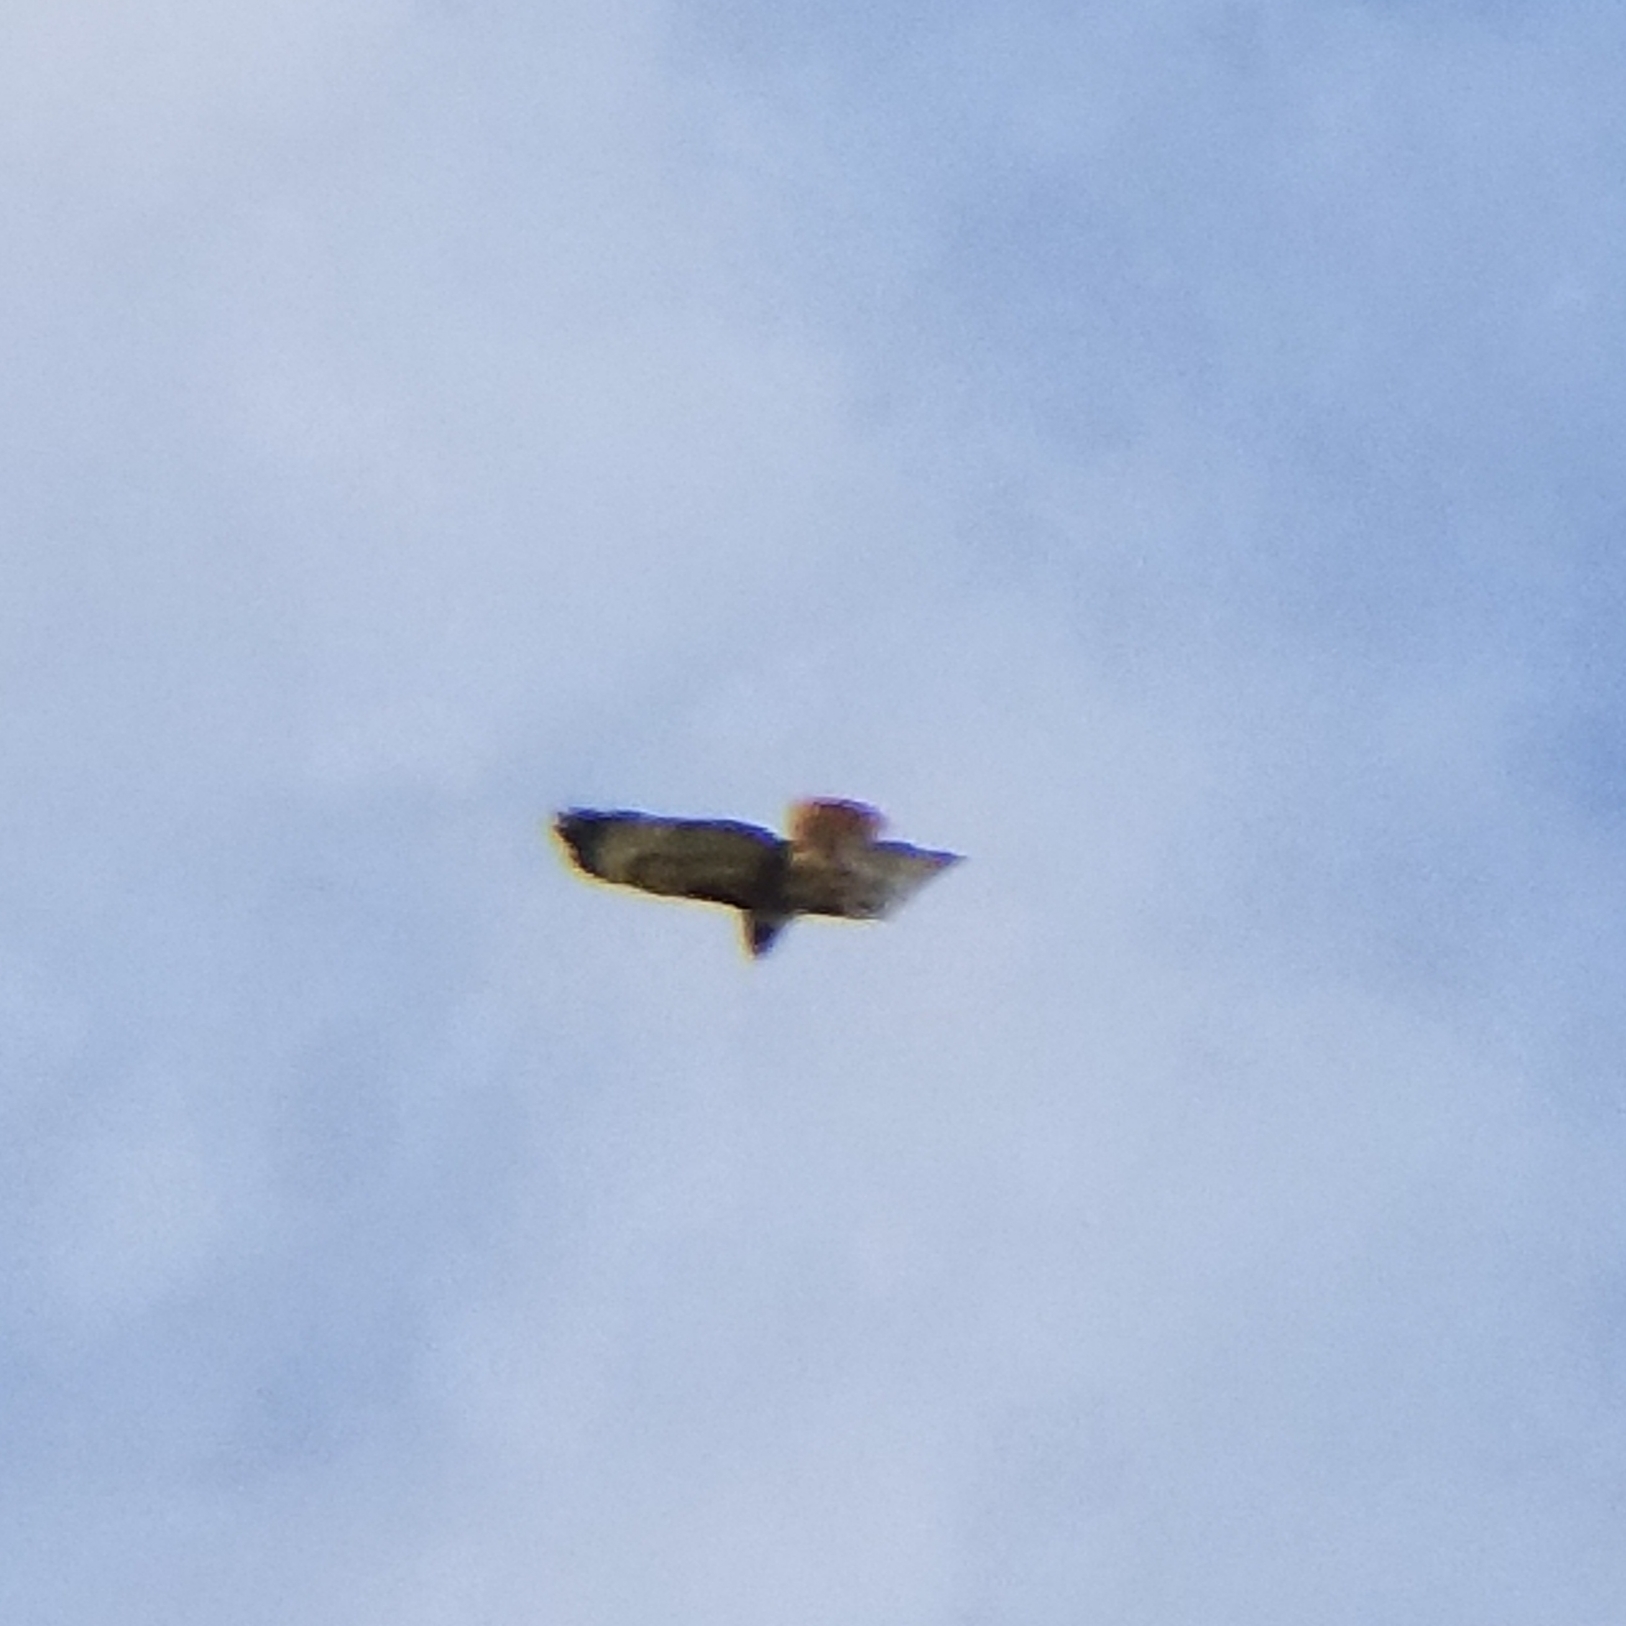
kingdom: Animalia
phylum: Chordata
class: Aves
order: Accipitriformes
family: Accipitridae
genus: Buteo
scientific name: Buteo jamaicensis
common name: Red-tailed hawk
